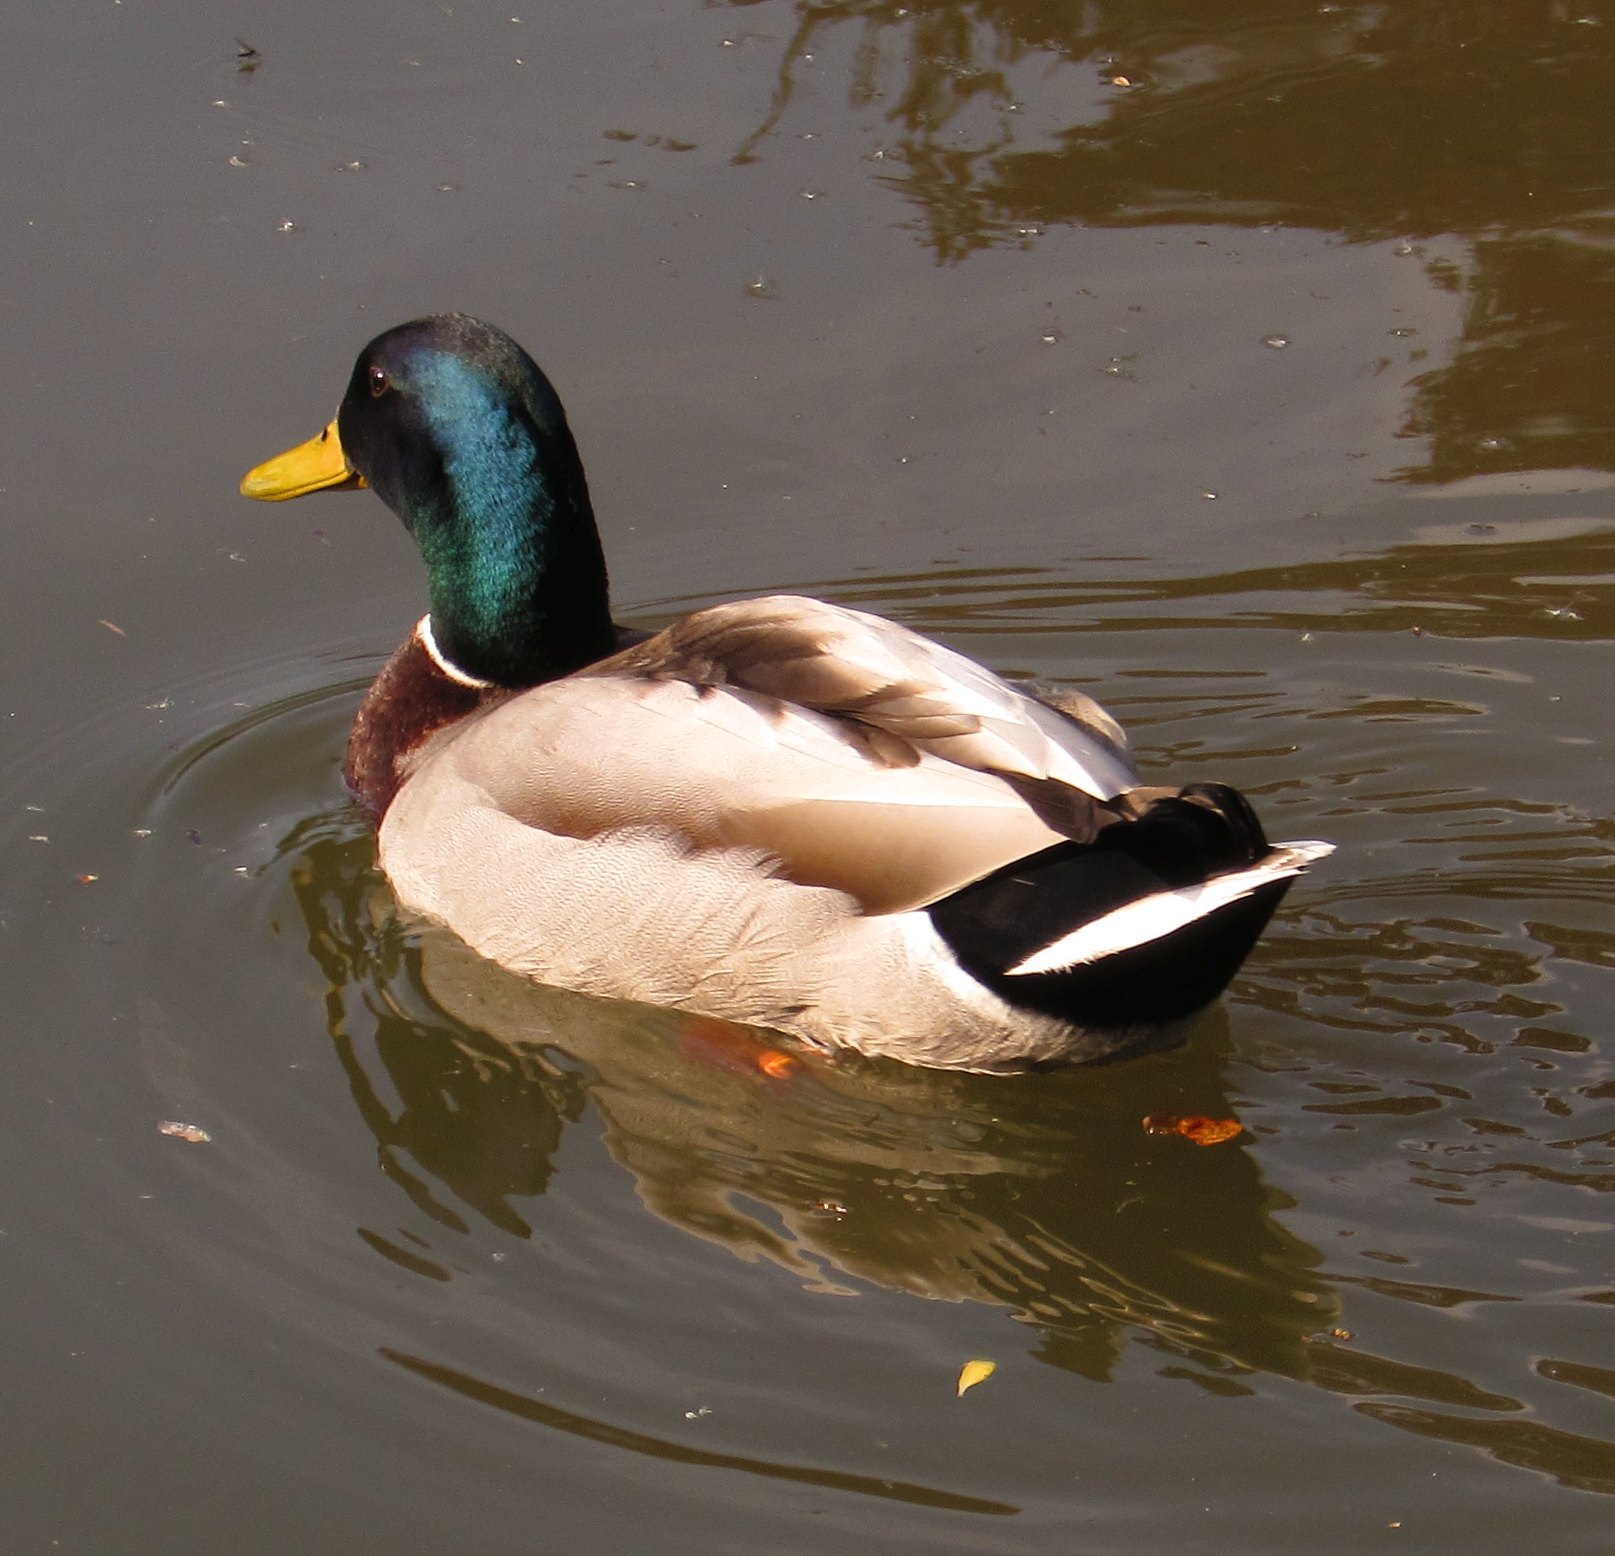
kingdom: Animalia
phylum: Chordata
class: Aves
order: Anseriformes
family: Anatidae
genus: Anas
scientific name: Anas platyrhynchos
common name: Mallard
